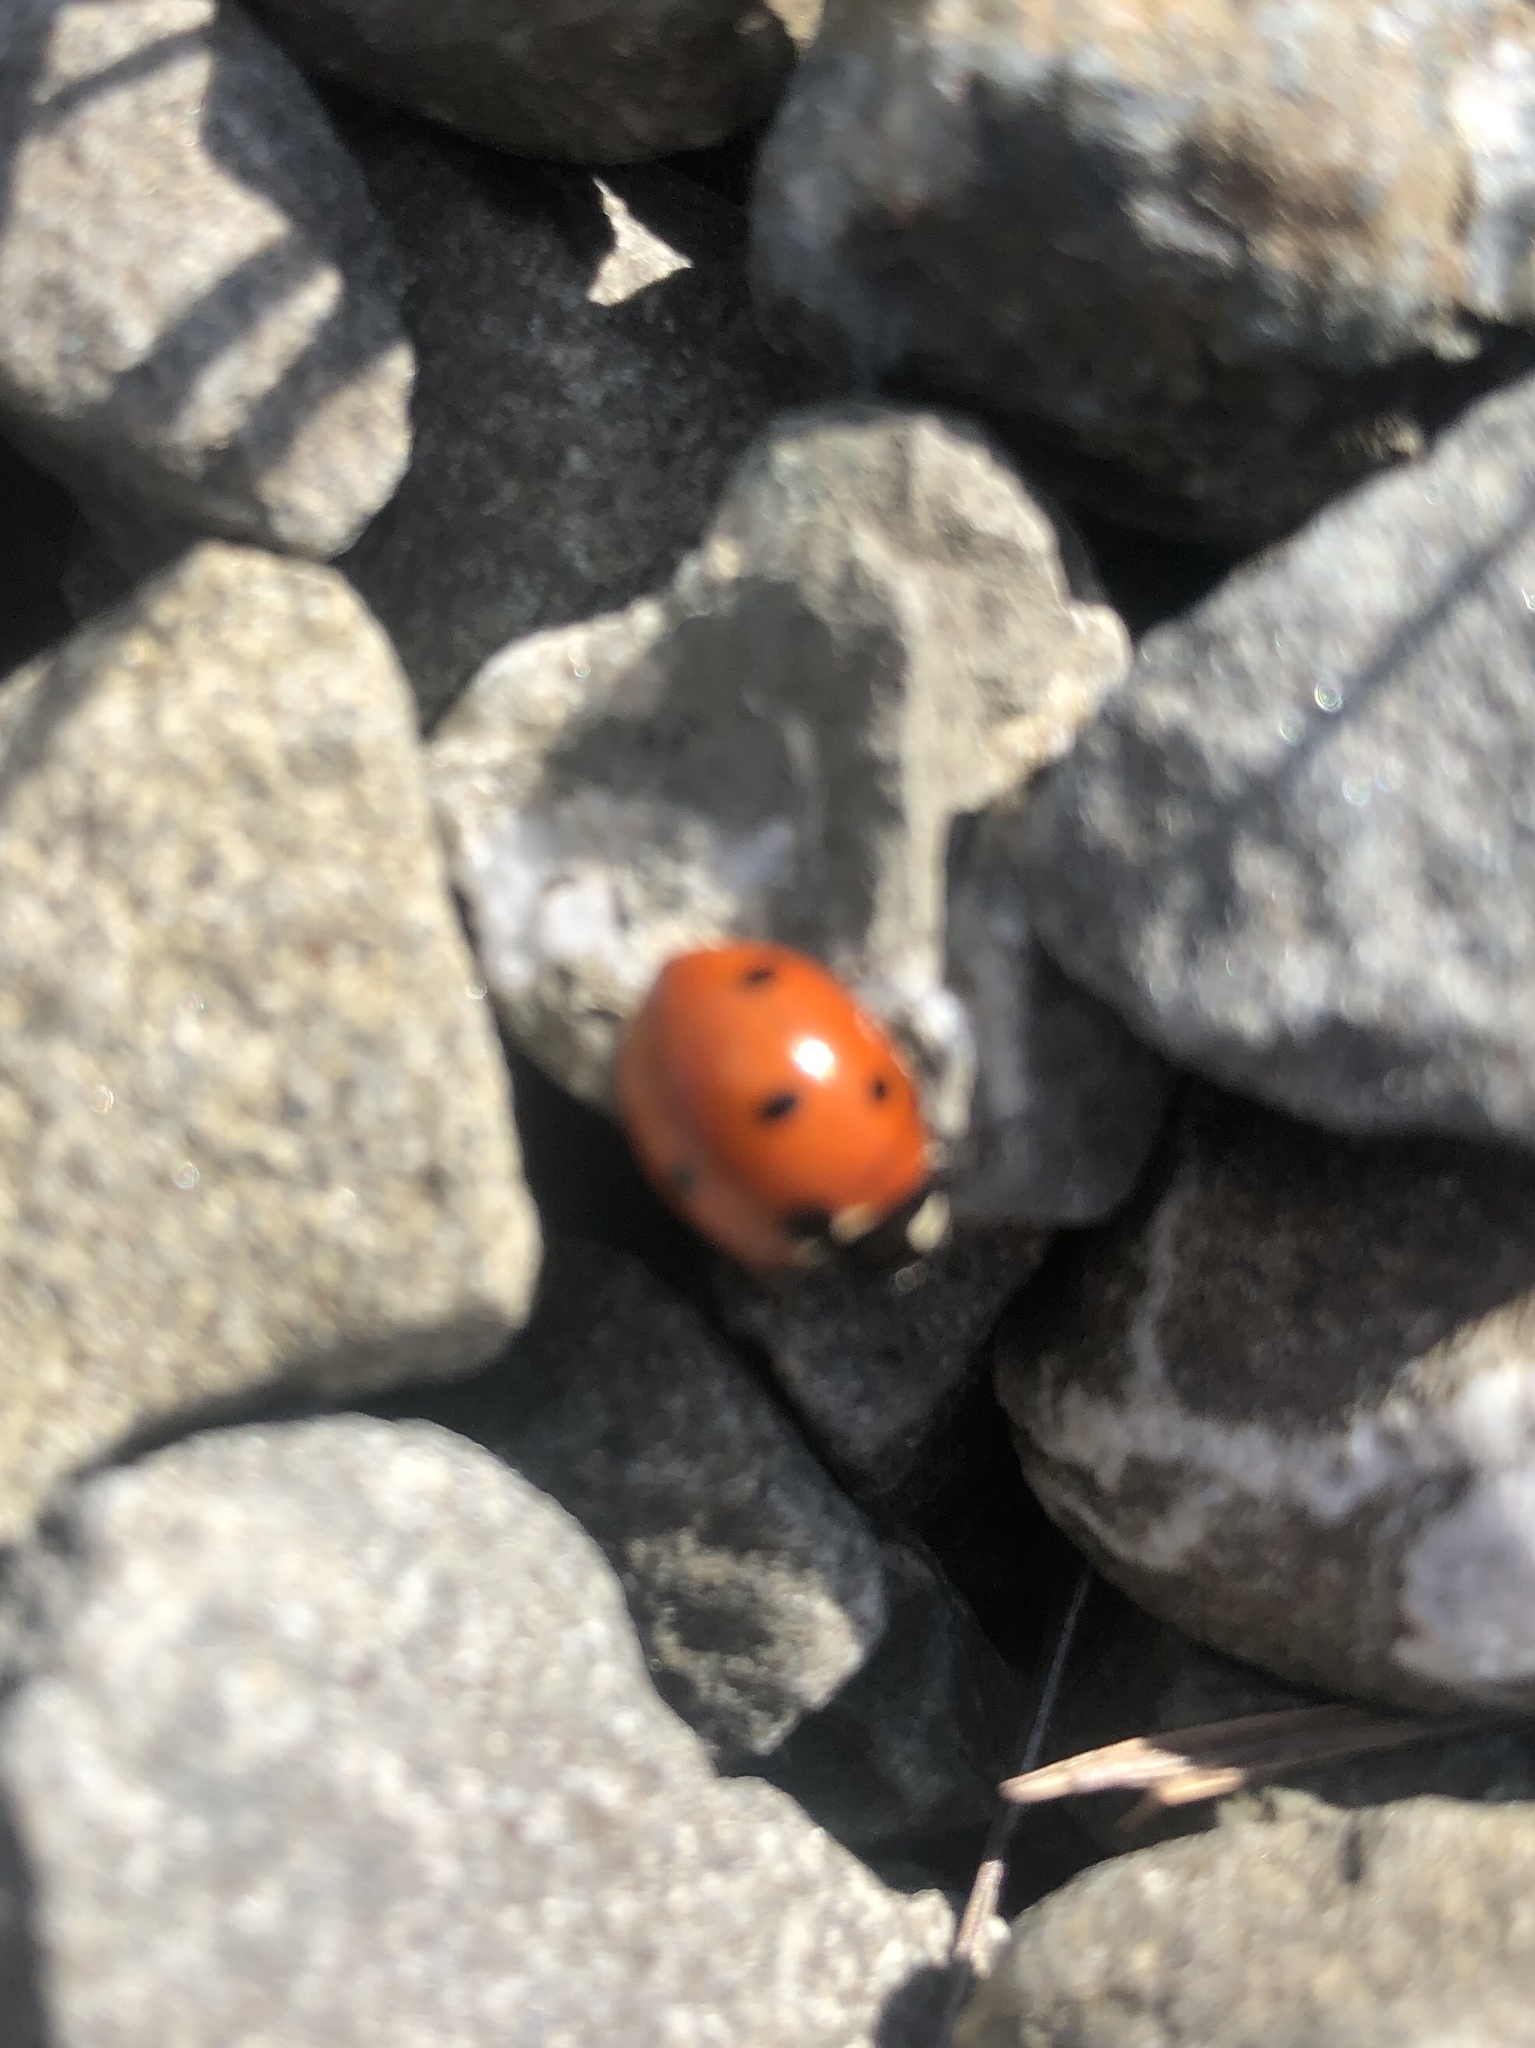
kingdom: Animalia
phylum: Arthropoda
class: Insecta
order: Coleoptera
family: Coccinellidae
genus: Coccinella
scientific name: Coccinella septempunctata
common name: Sevenspotted lady beetle
